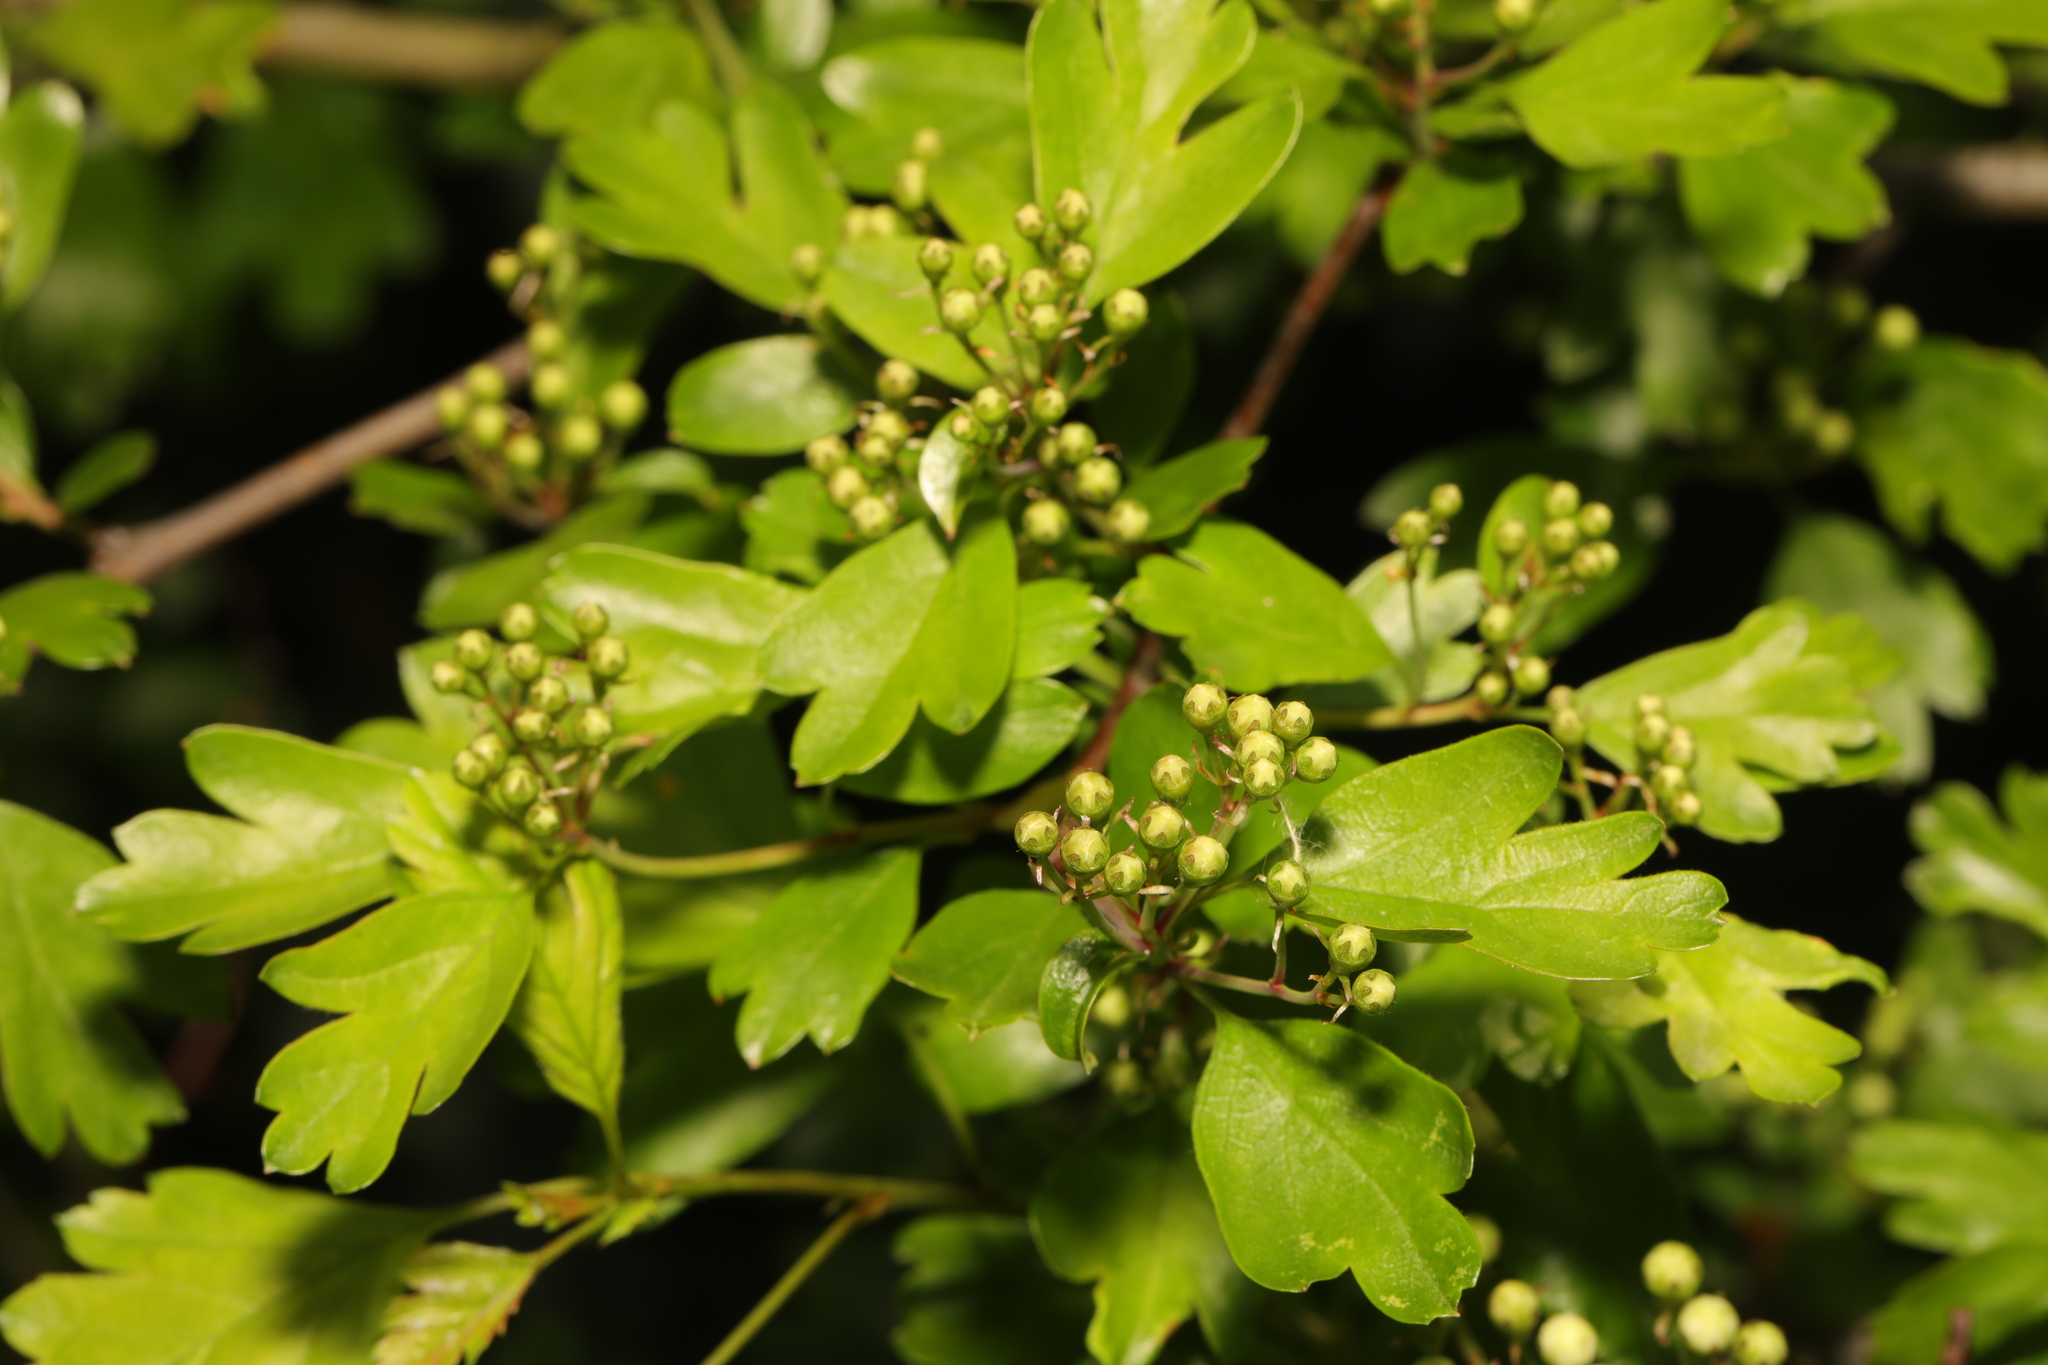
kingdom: Plantae
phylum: Tracheophyta
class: Magnoliopsida
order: Rosales
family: Rosaceae
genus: Crataegus
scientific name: Crataegus monogyna
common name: Hawthorn
